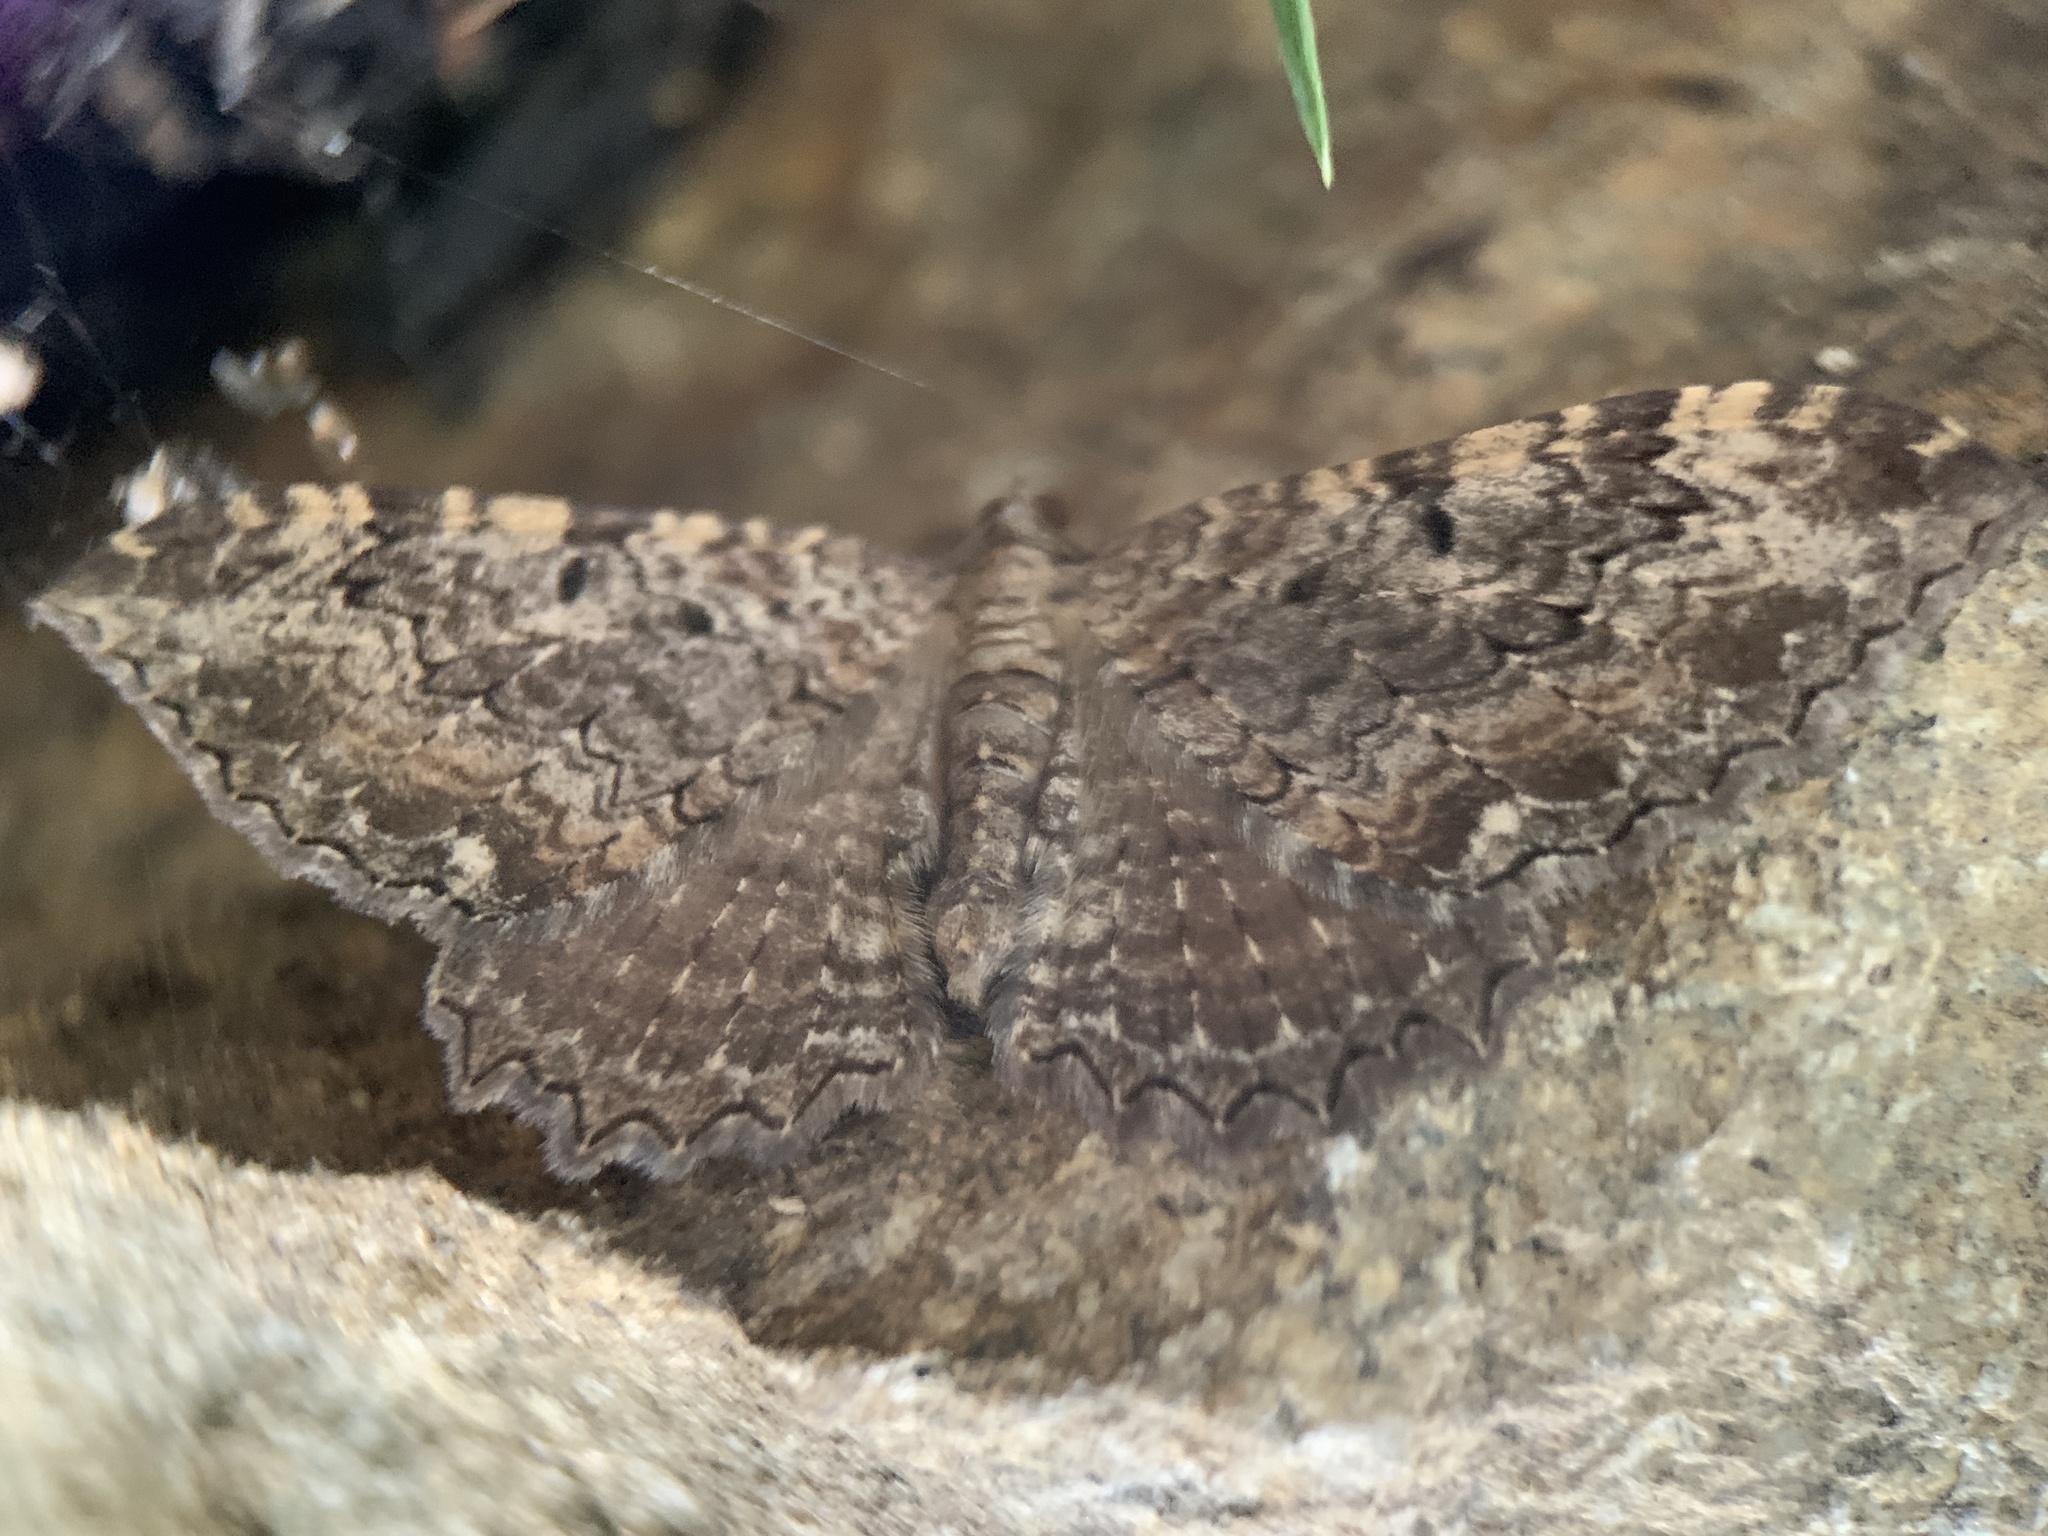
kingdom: Animalia
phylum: Arthropoda
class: Insecta
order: Lepidoptera
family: Geometridae
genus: Rheumaptera
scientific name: Rheumaptera
